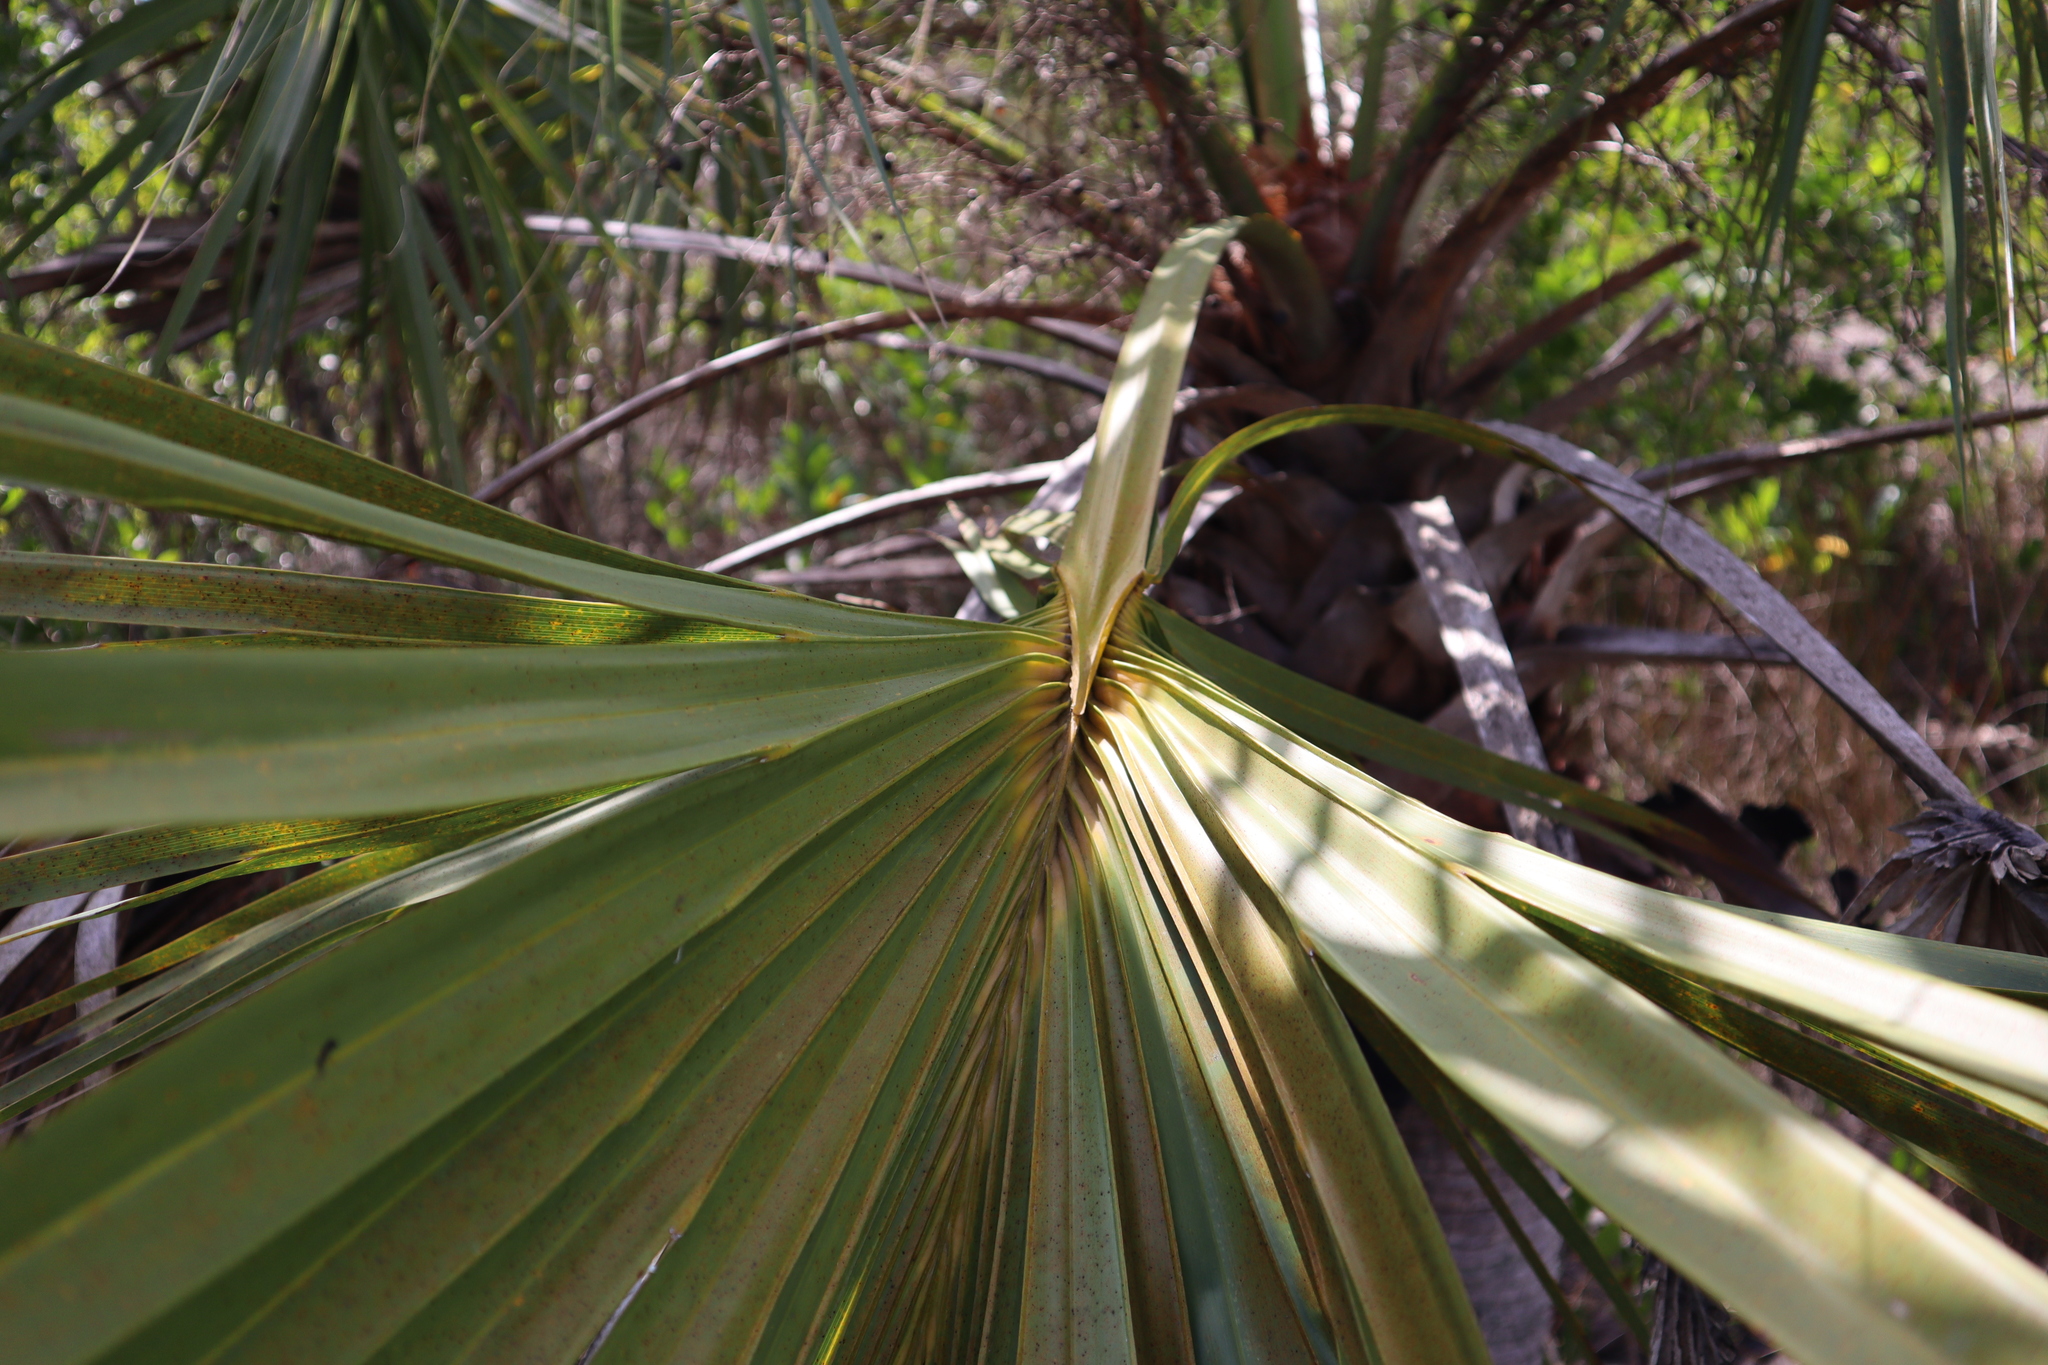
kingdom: Plantae
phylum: Tracheophyta
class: Liliopsida
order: Arecales
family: Arecaceae
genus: Sabal
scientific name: Sabal palmetto
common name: Blue palmetto
